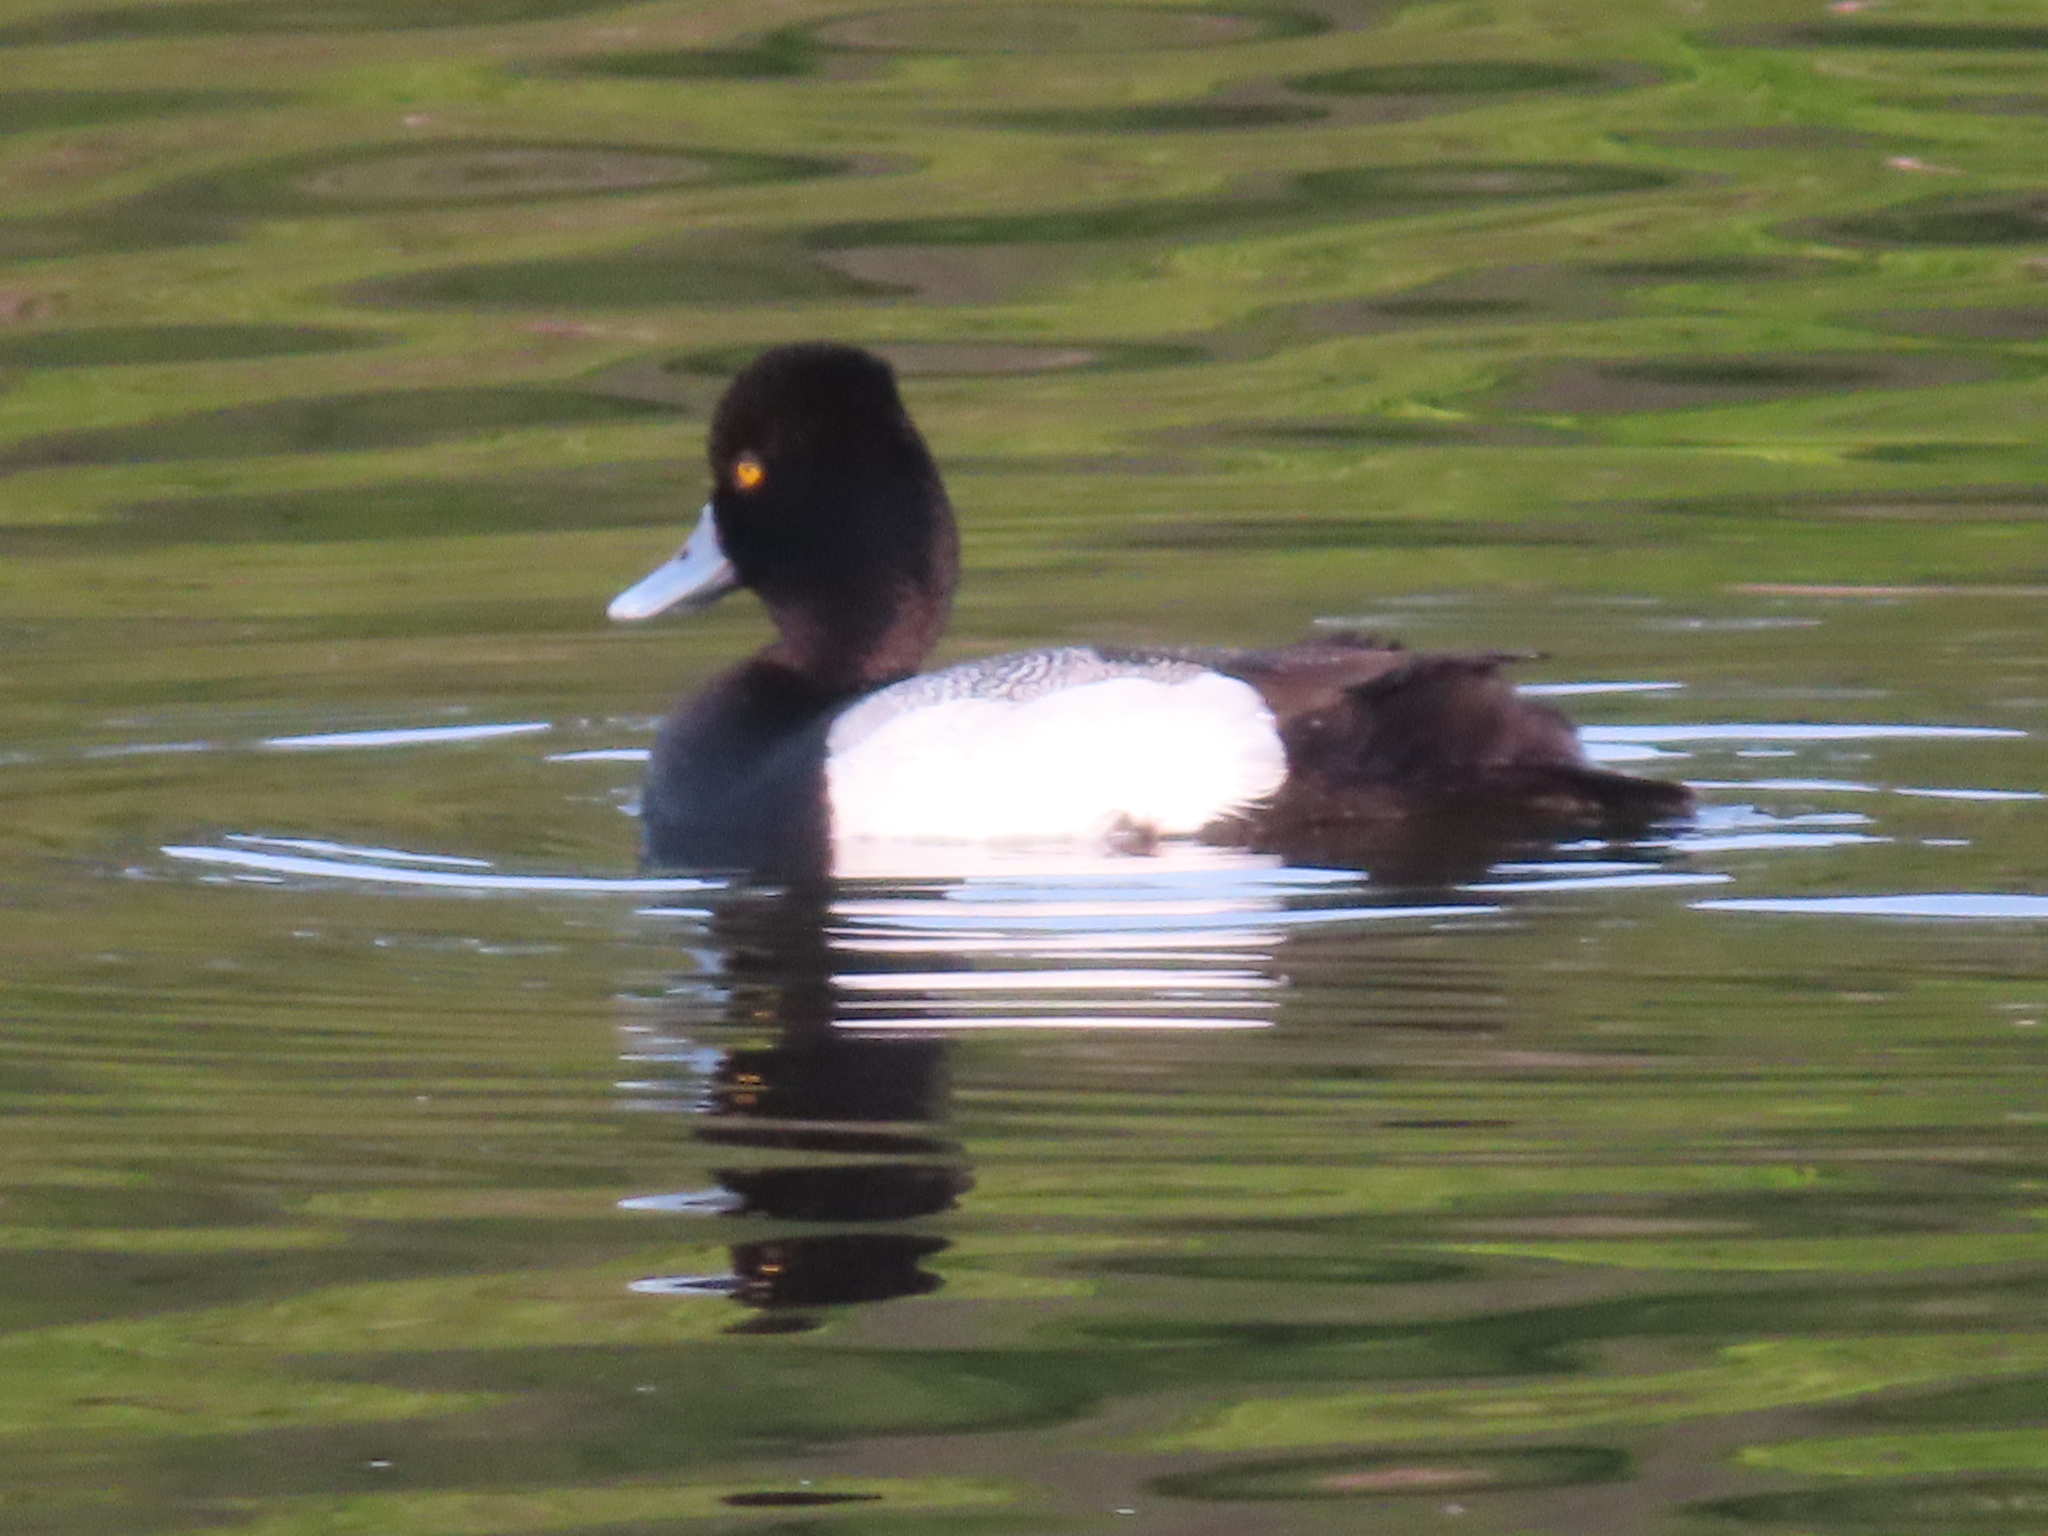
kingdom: Animalia
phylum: Chordata
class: Aves
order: Anseriformes
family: Anatidae
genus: Aythya
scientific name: Aythya affinis
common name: Lesser scaup
